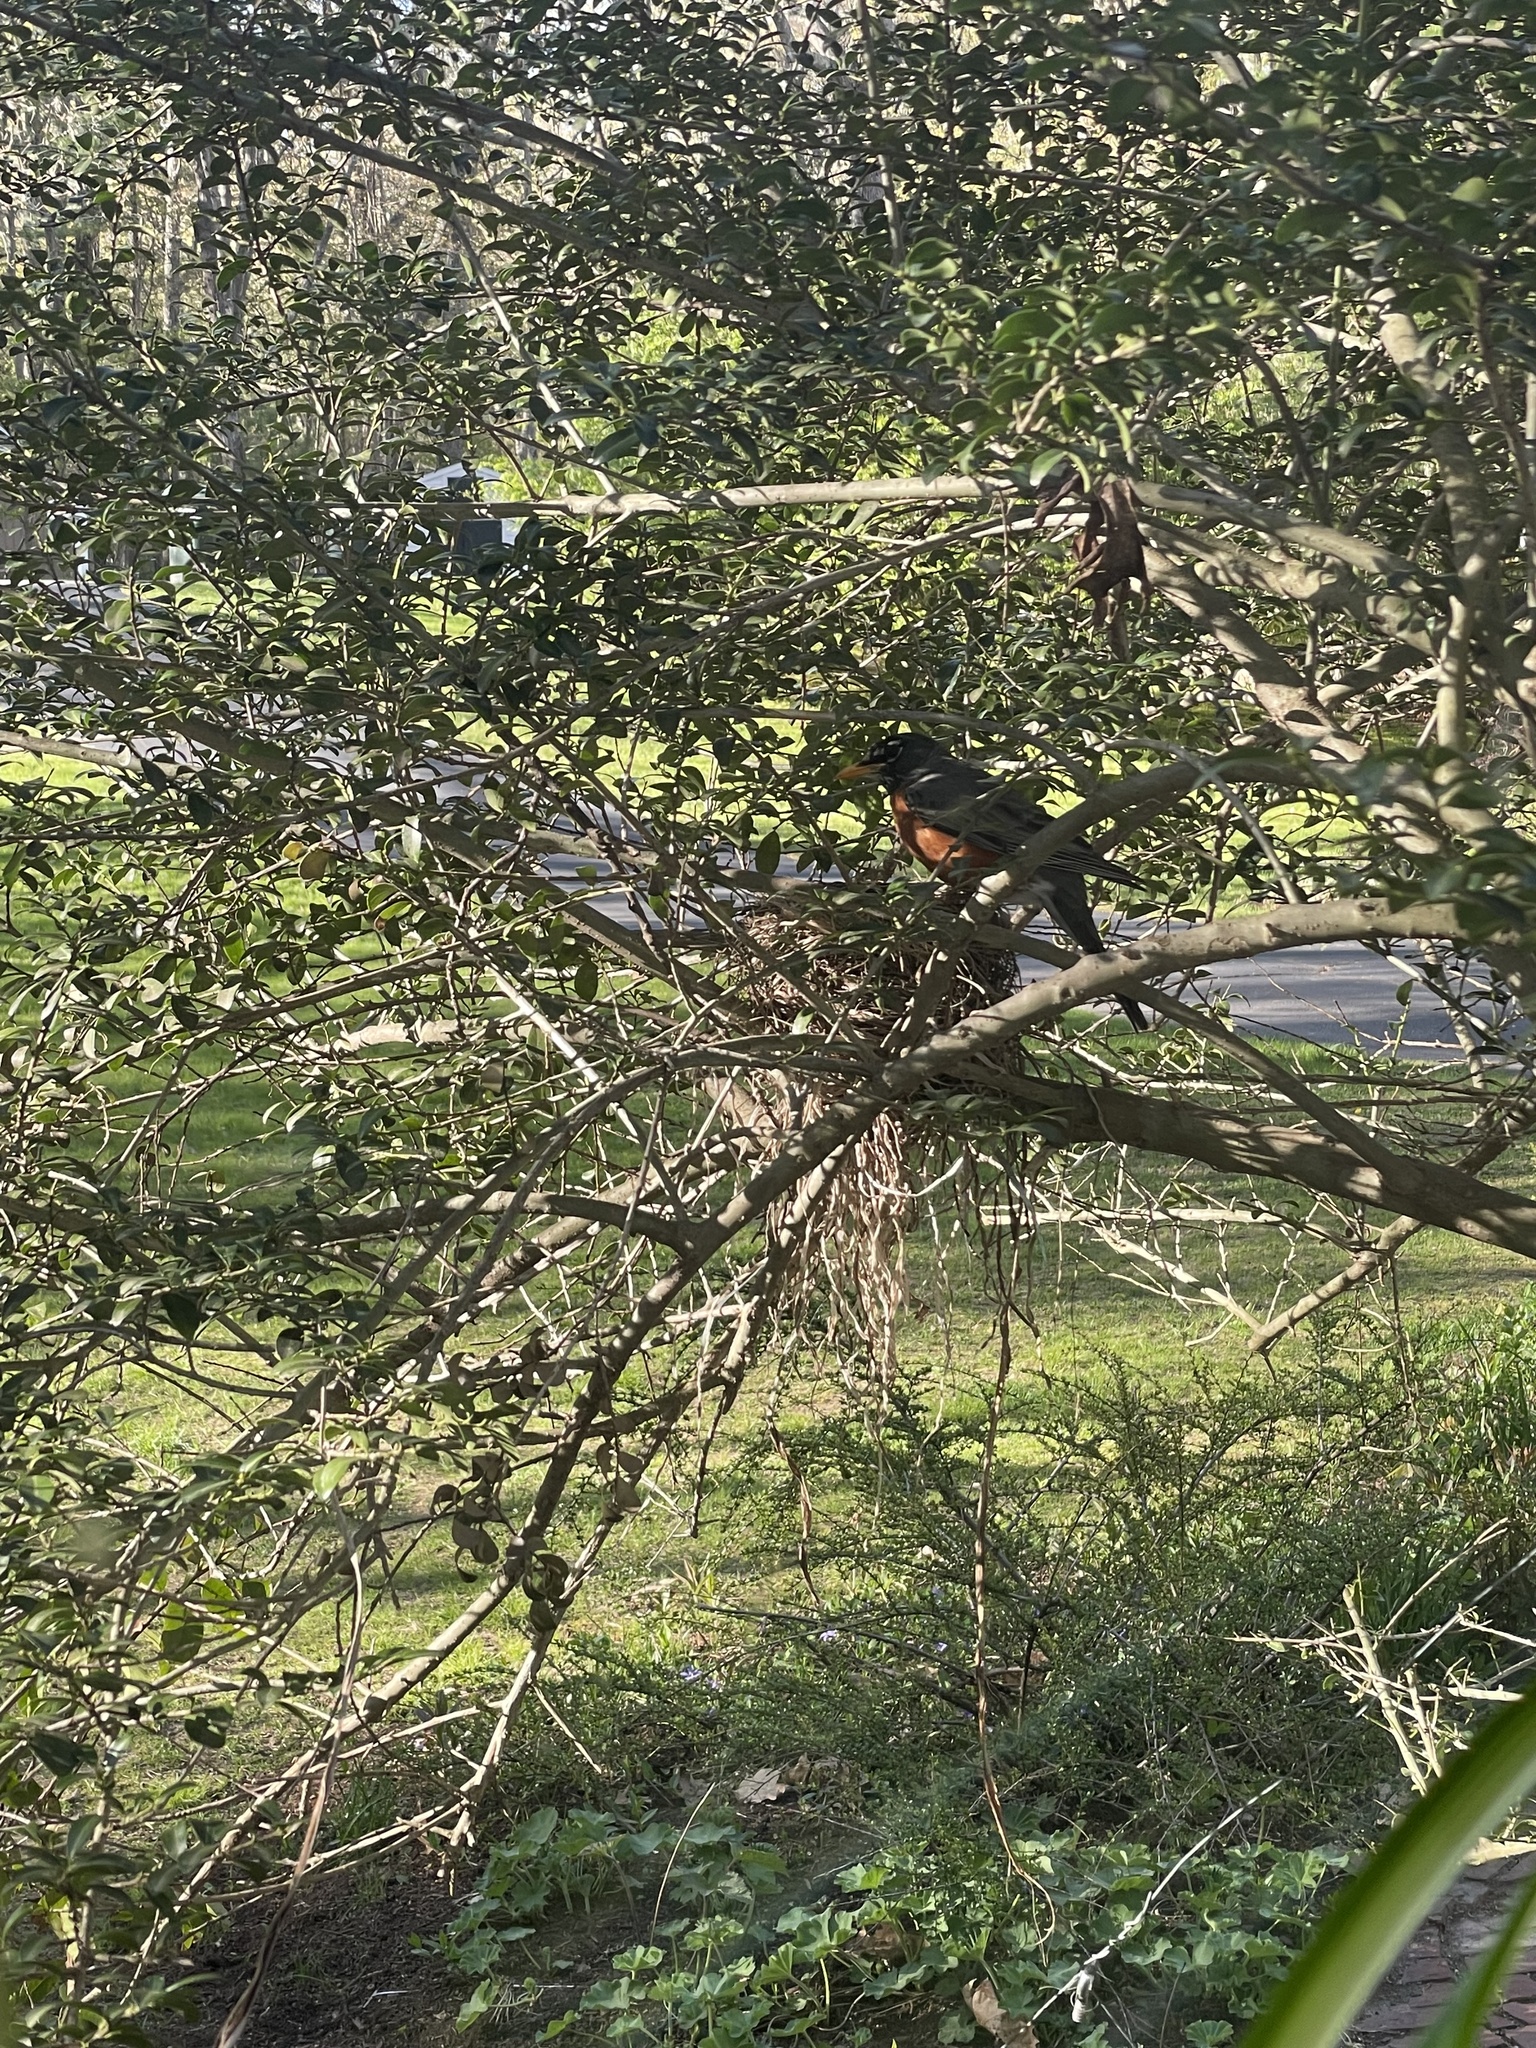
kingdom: Animalia
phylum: Chordata
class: Aves
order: Passeriformes
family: Turdidae
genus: Turdus
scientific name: Turdus migratorius
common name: American robin
